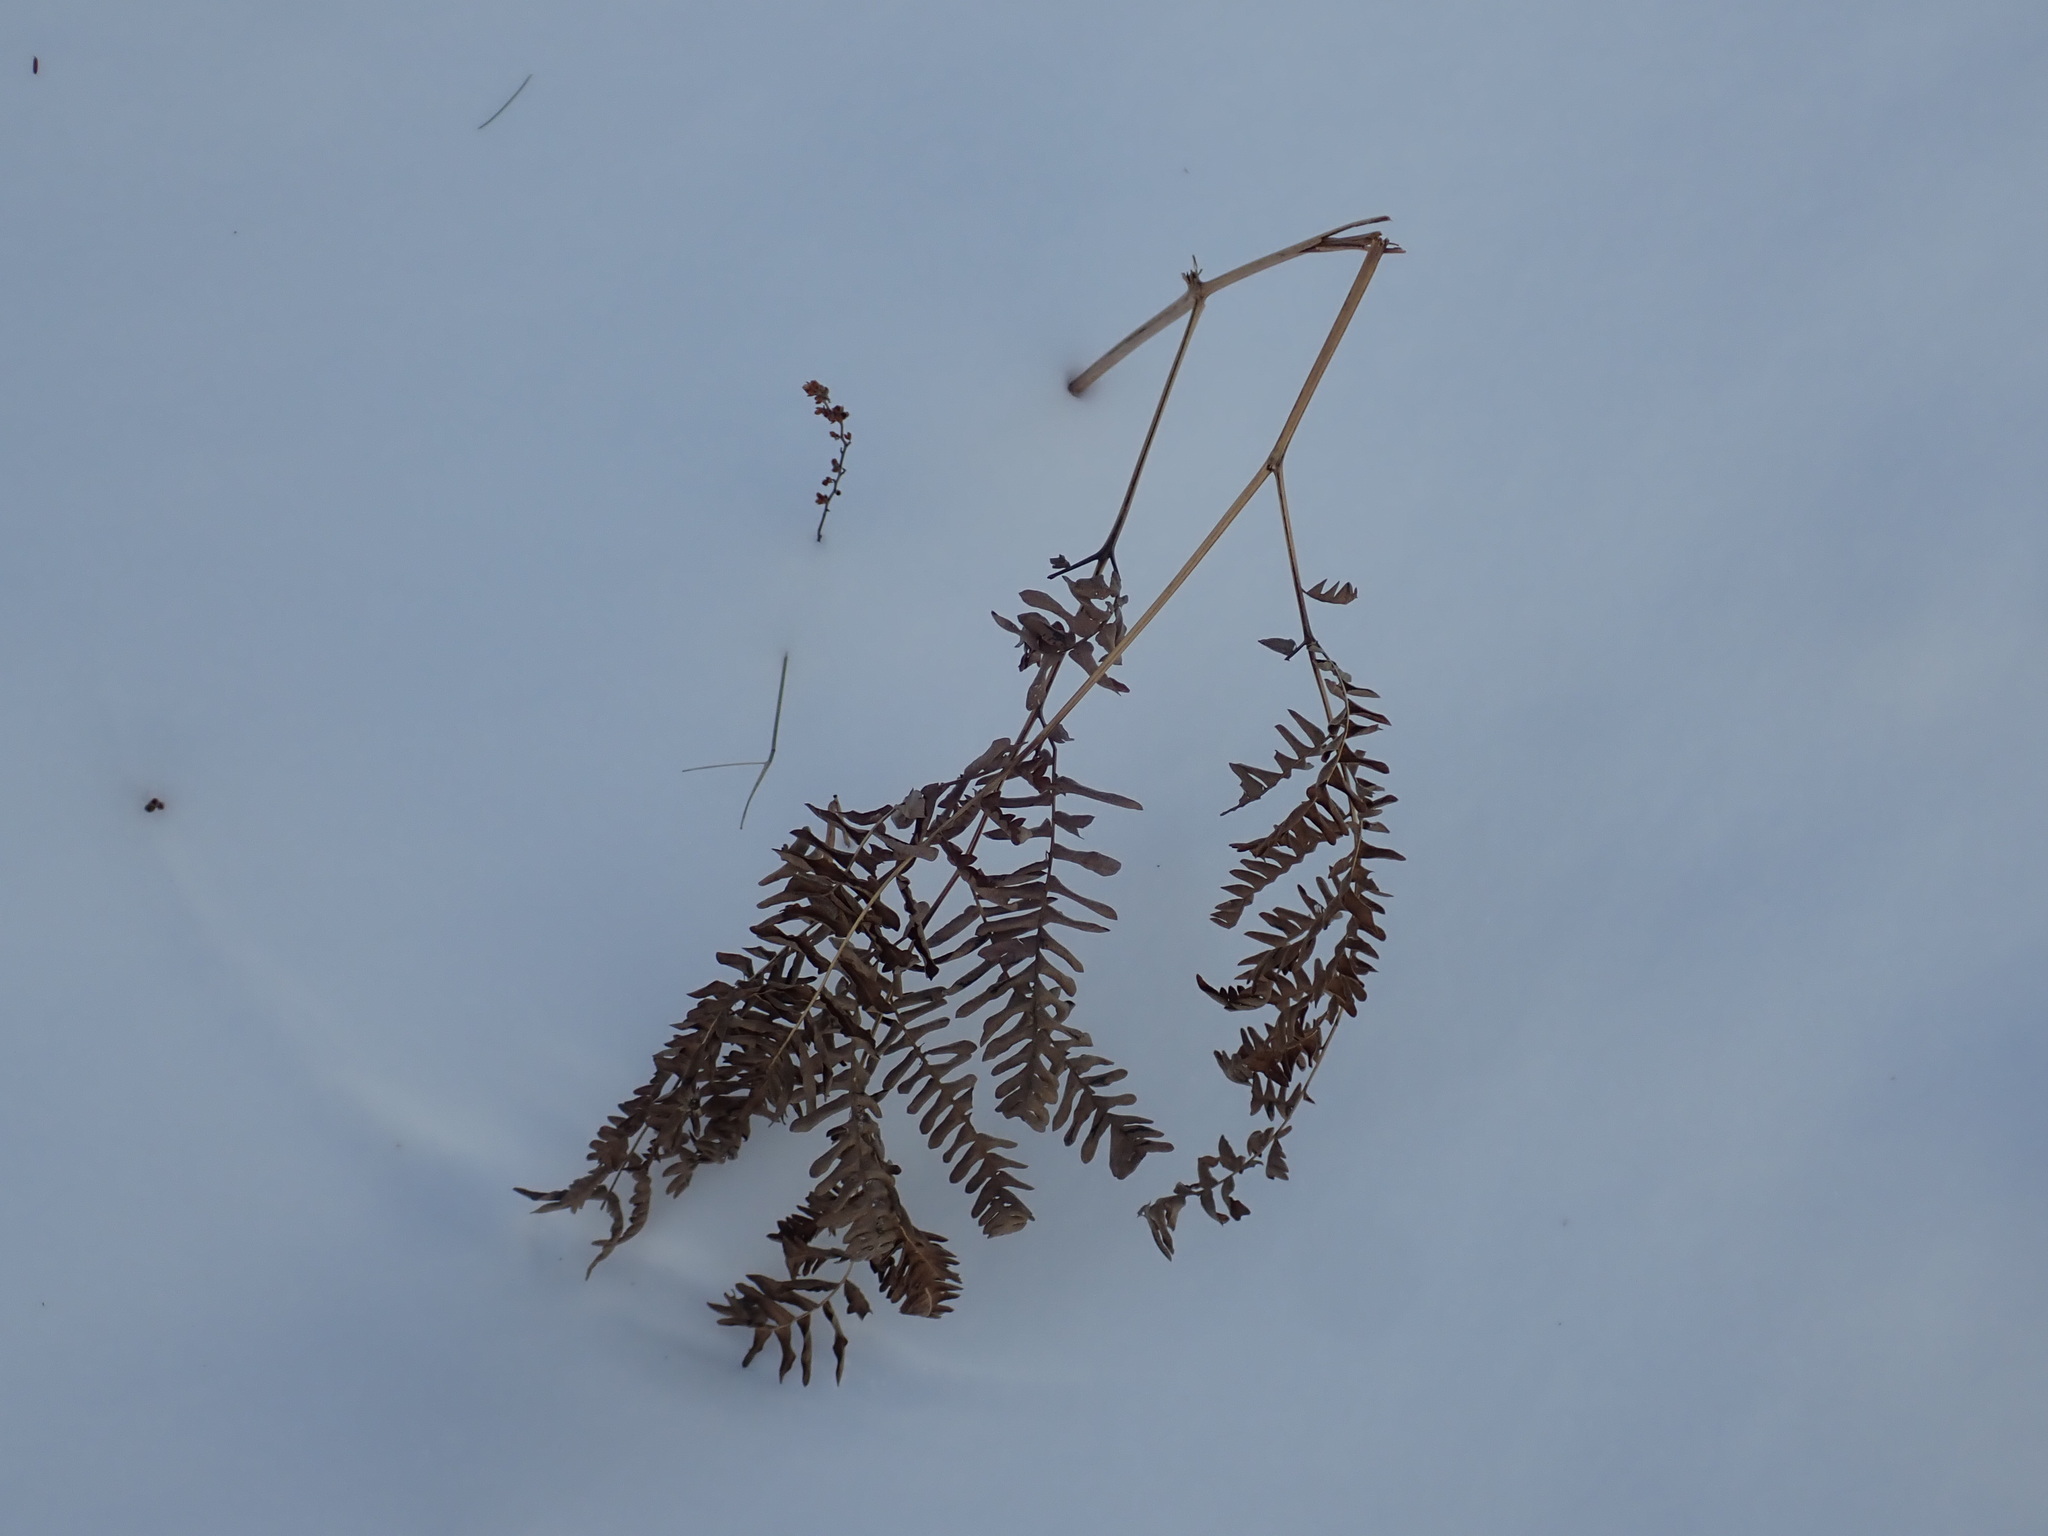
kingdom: Plantae
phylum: Tracheophyta
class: Polypodiopsida
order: Polypodiales
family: Dennstaedtiaceae
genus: Pteridium
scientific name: Pteridium aquilinum
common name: Bracken
